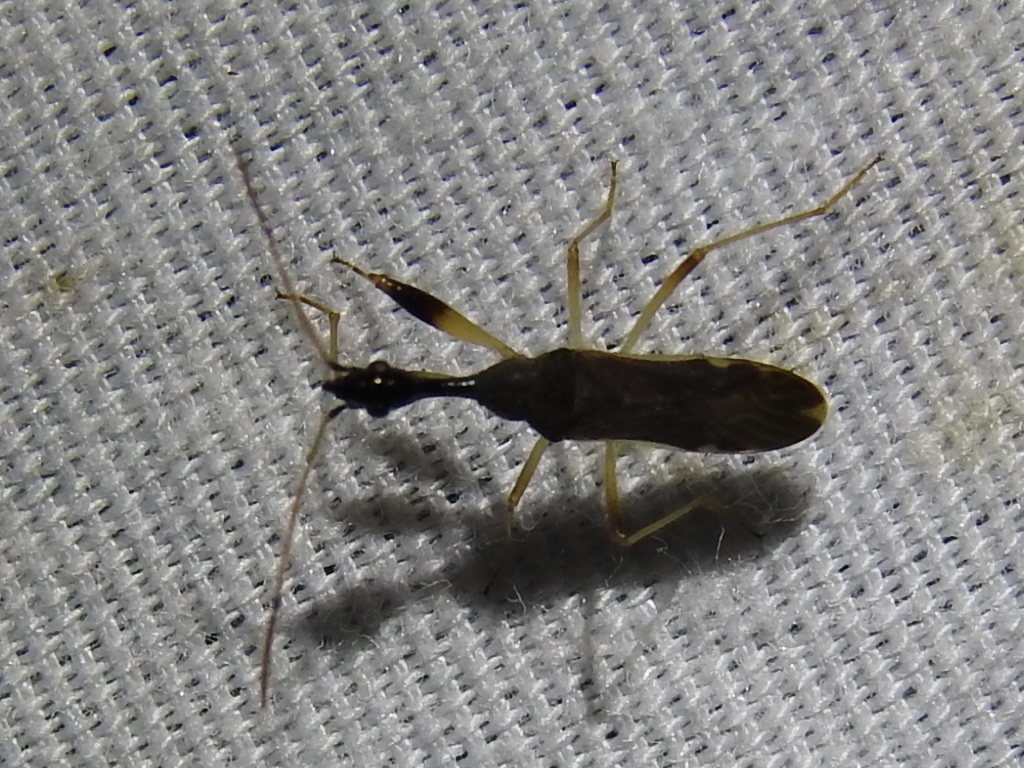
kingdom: Animalia
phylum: Arthropoda
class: Insecta
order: Hemiptera
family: Rhyparochromidae
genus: Myodocha
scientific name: Myodocha serripes
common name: Long-necked seed bug
